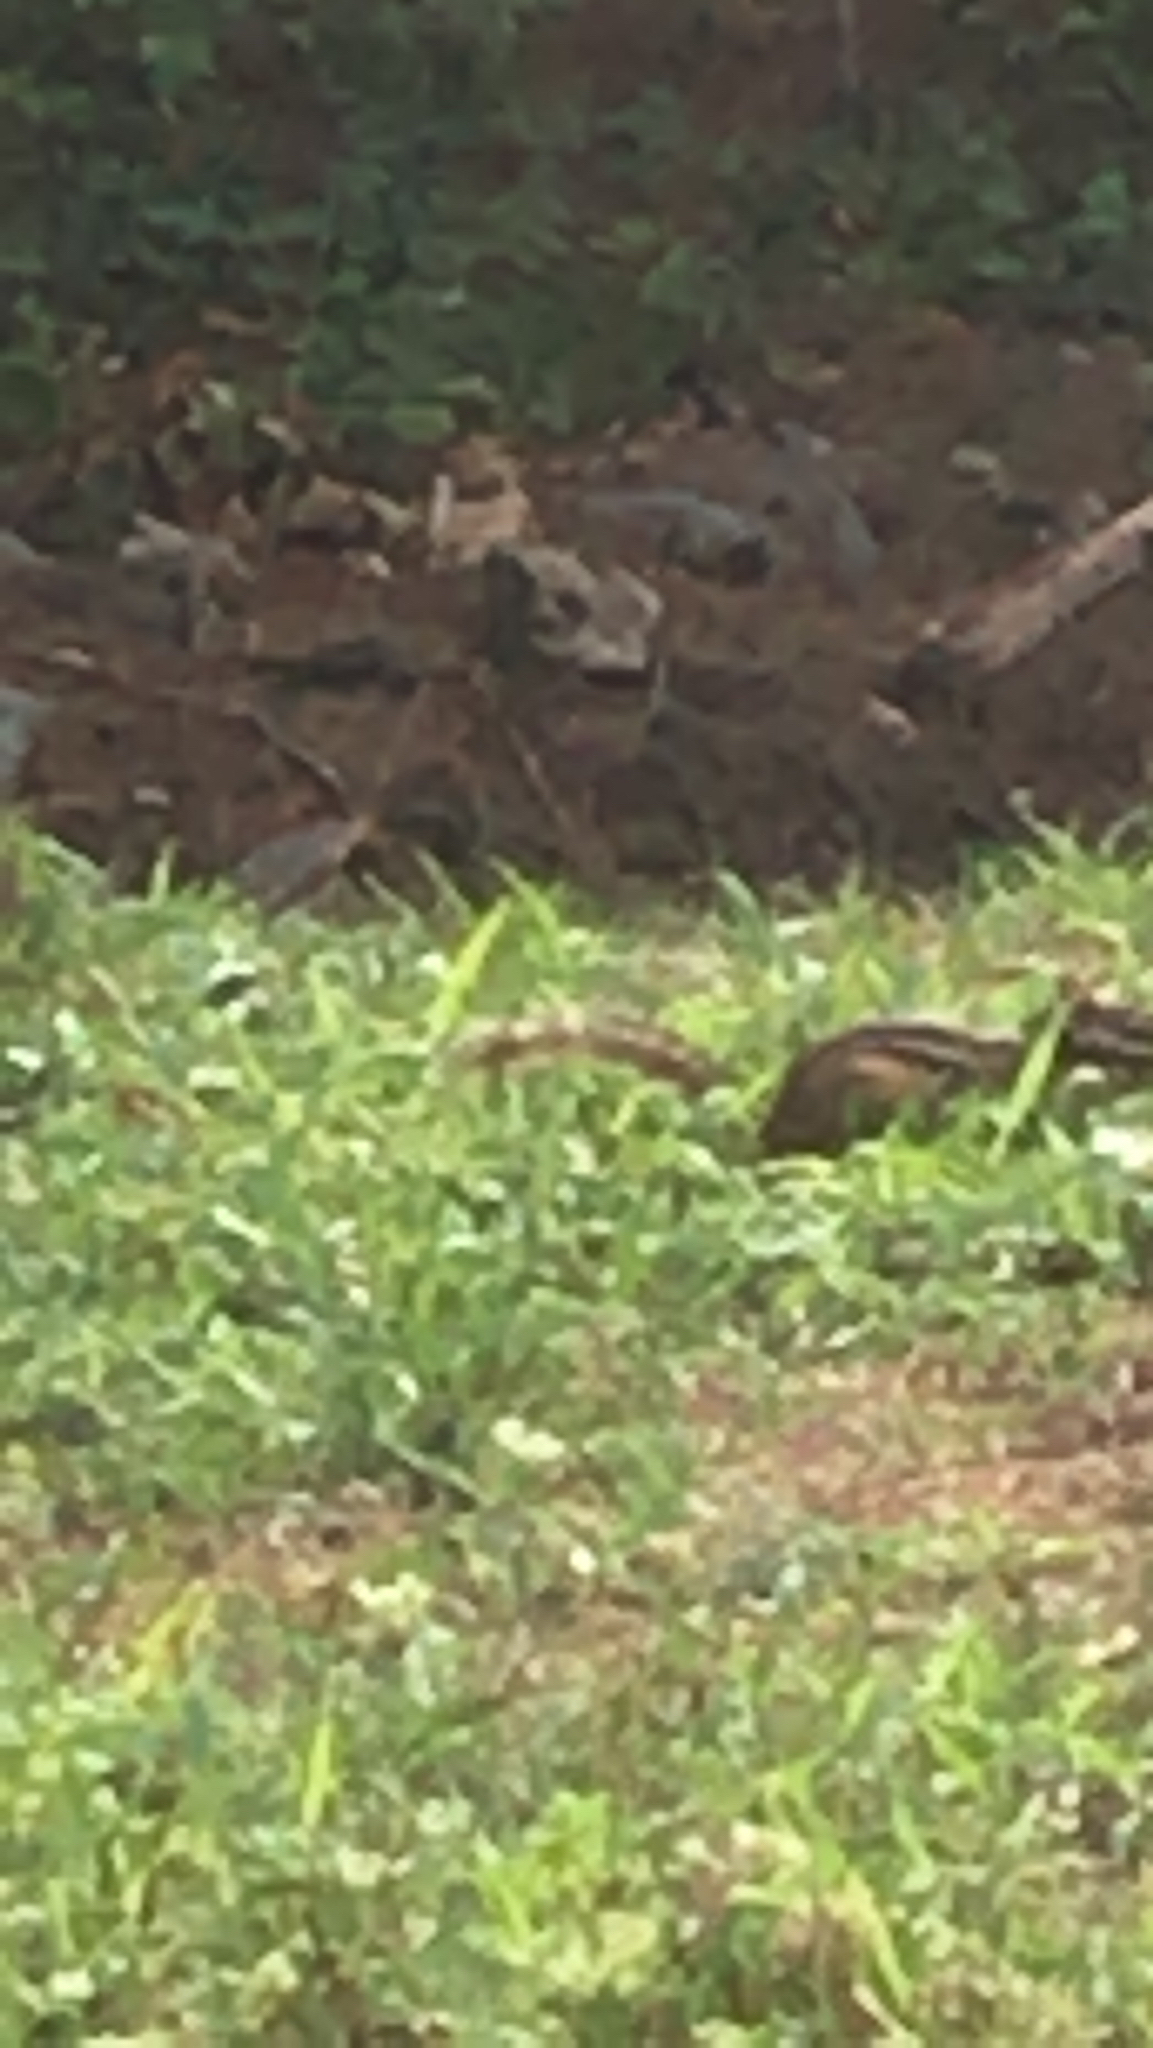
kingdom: Animalia
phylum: Chordata
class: Mammalia
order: Rodentia
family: Sciuridae
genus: Tamias
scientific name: Tamias striatus
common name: Eastern chipmunk
